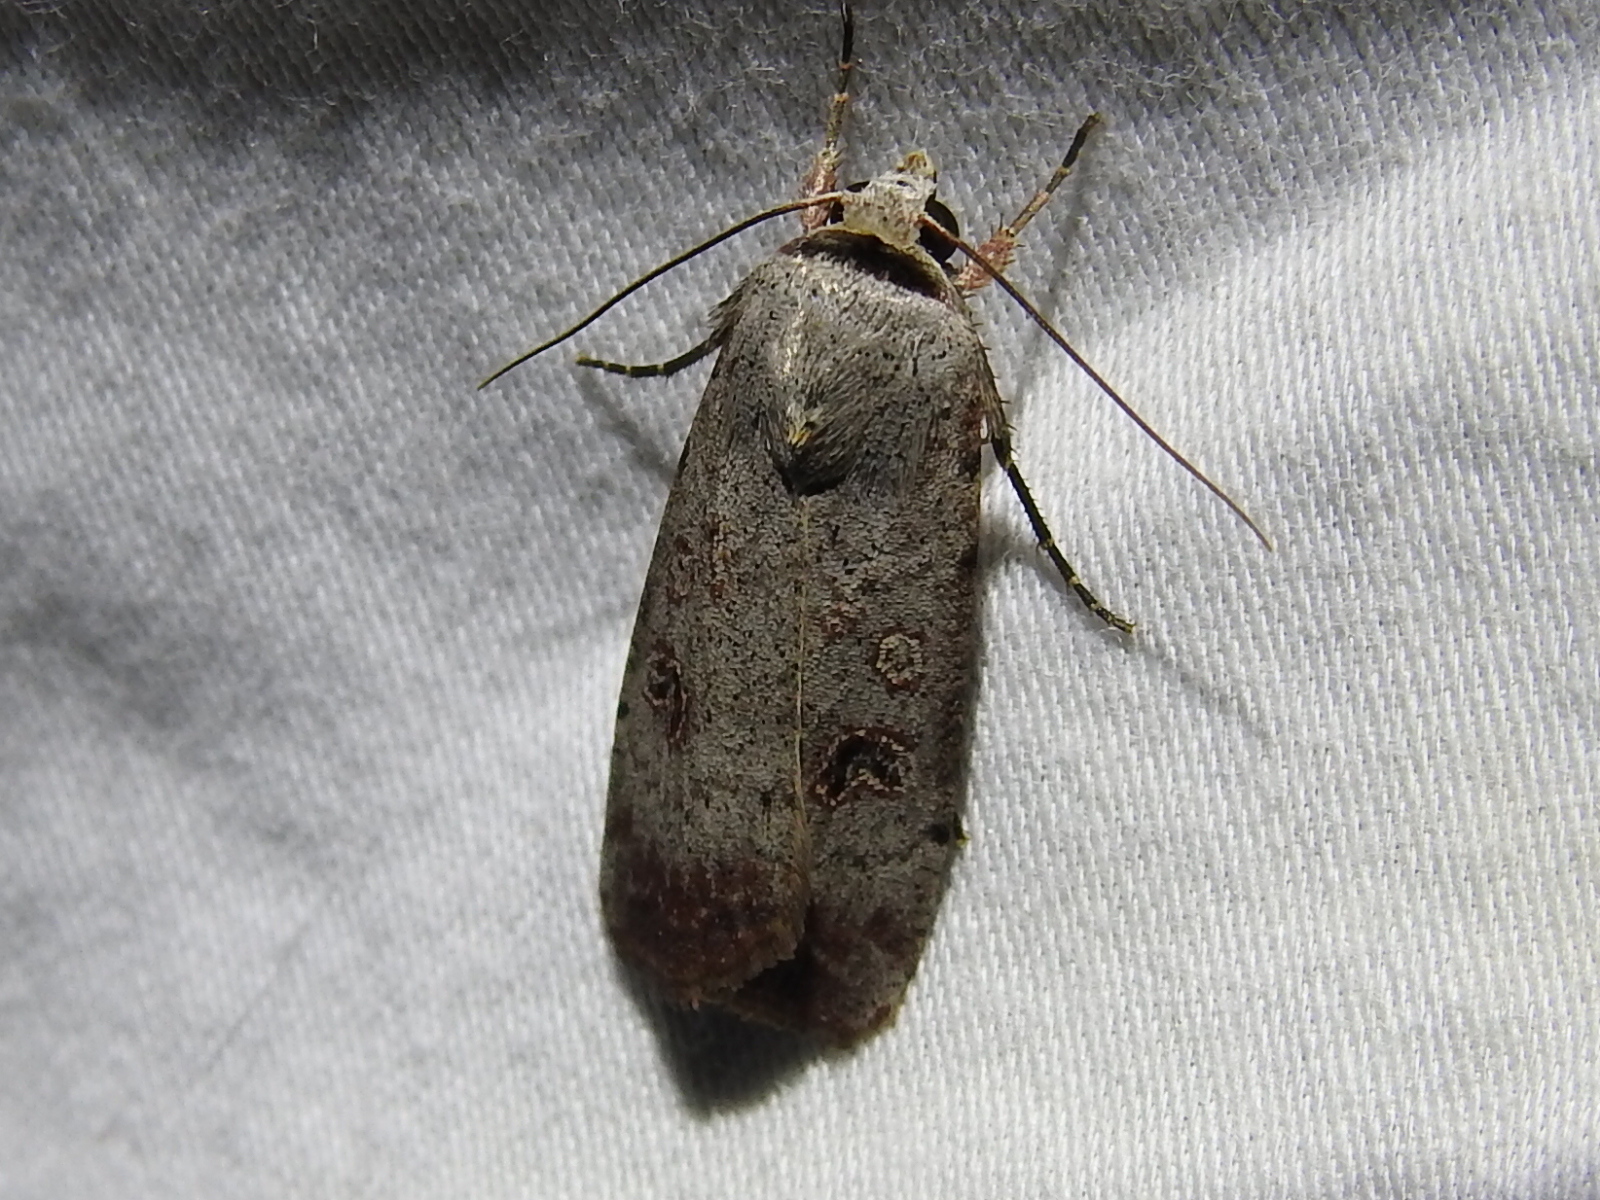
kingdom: Animalia
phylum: Arthropoda
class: Insecta
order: Lepidoptera
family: Noctuidae
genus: Anicla
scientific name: Anicla infecta
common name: Green cutworm
